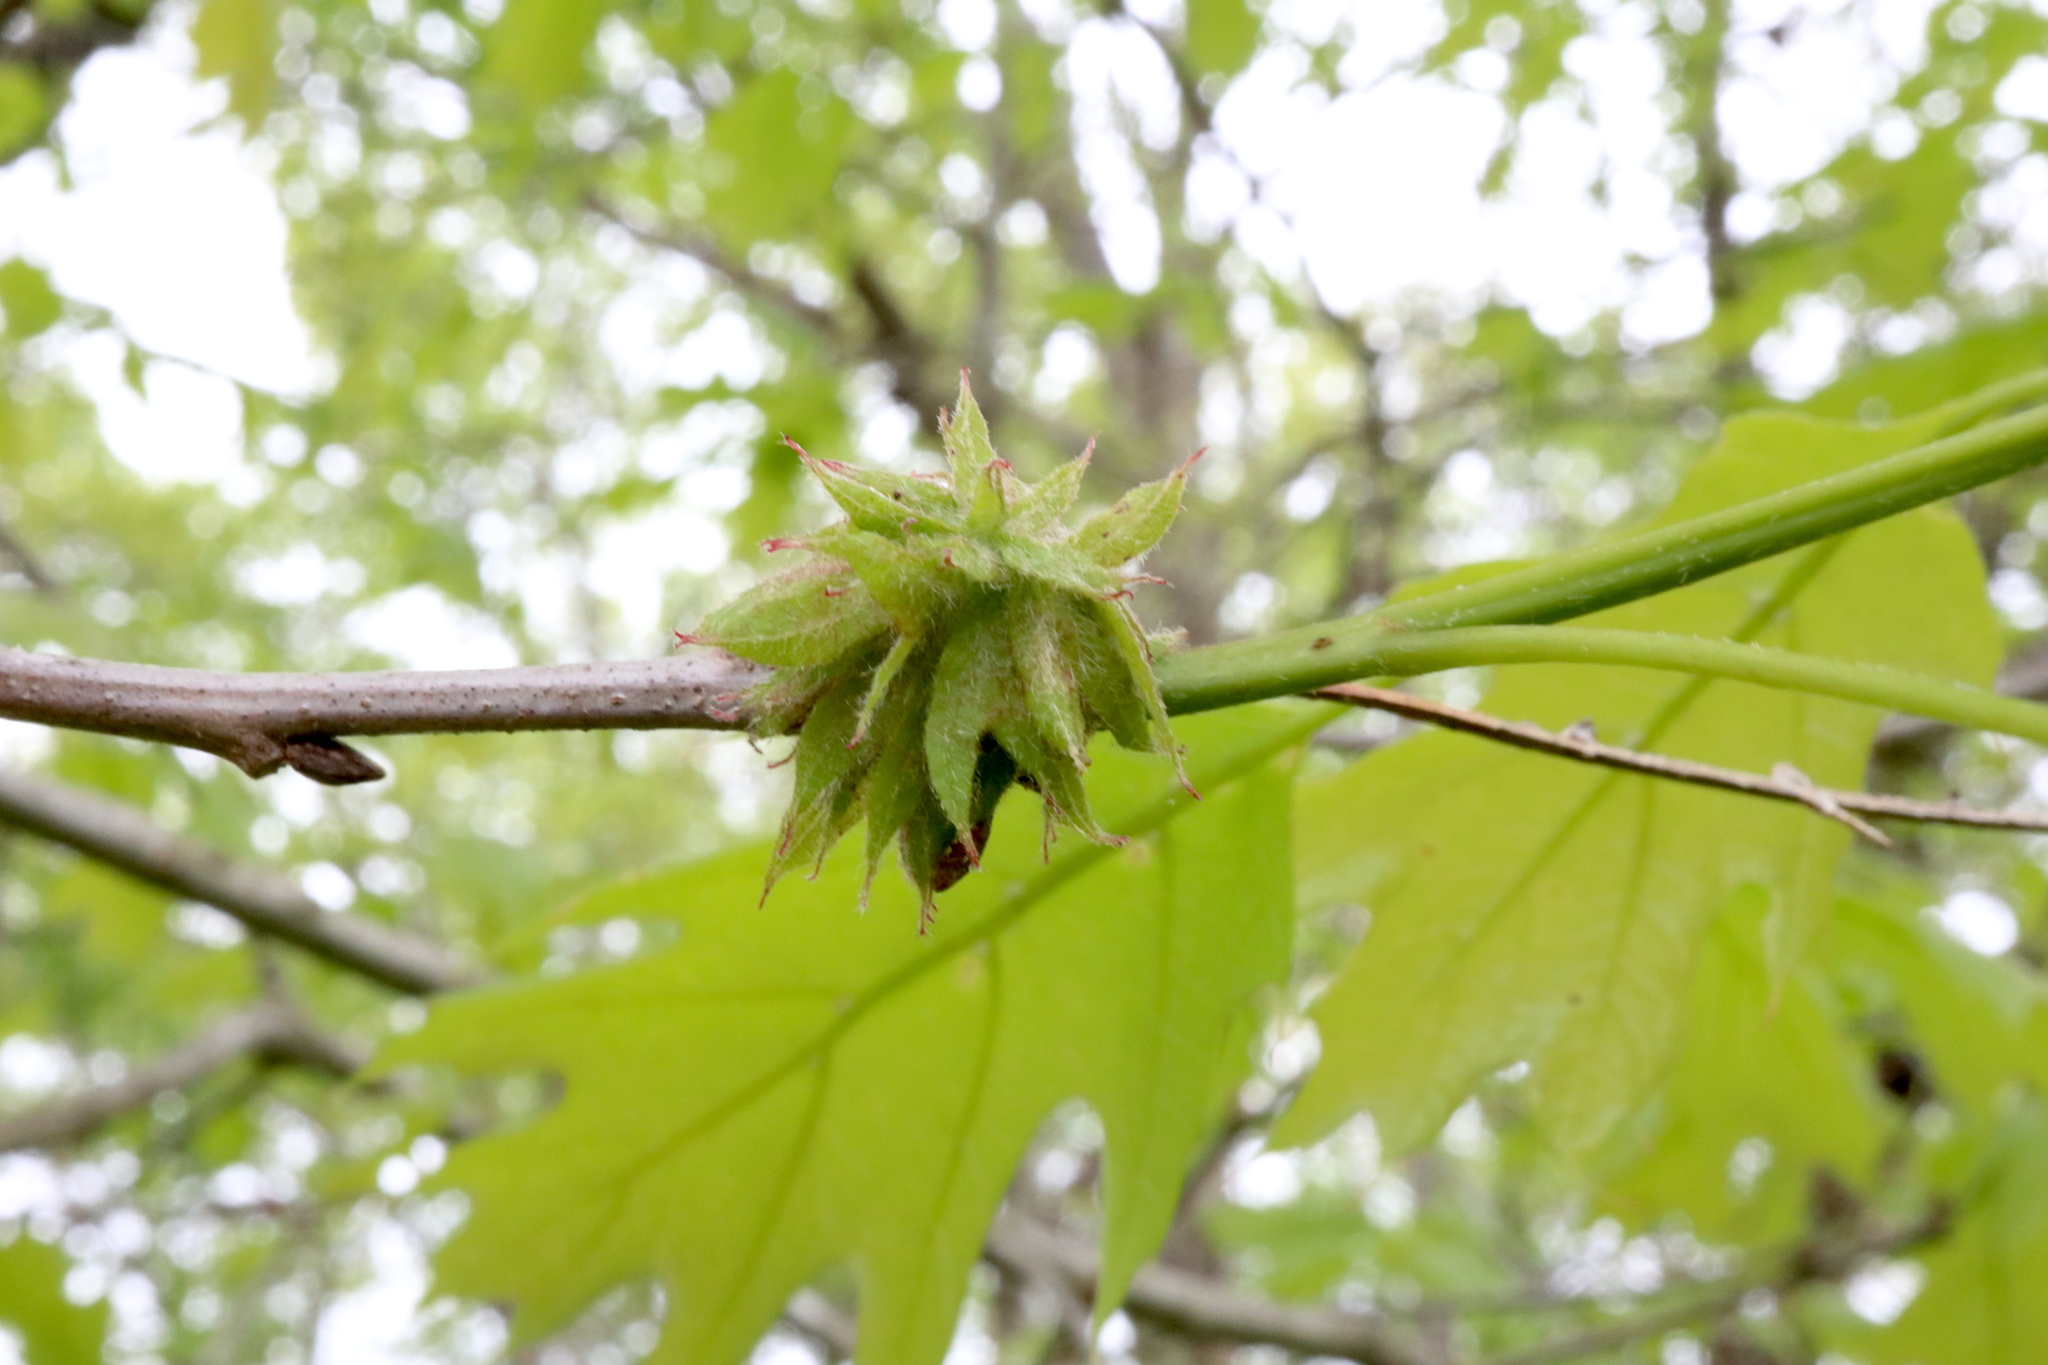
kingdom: Animalia
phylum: Arthropoda
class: Insecta
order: Hymenoptera
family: Cynipidae
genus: Dryocosmus
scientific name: Dryocosmus
